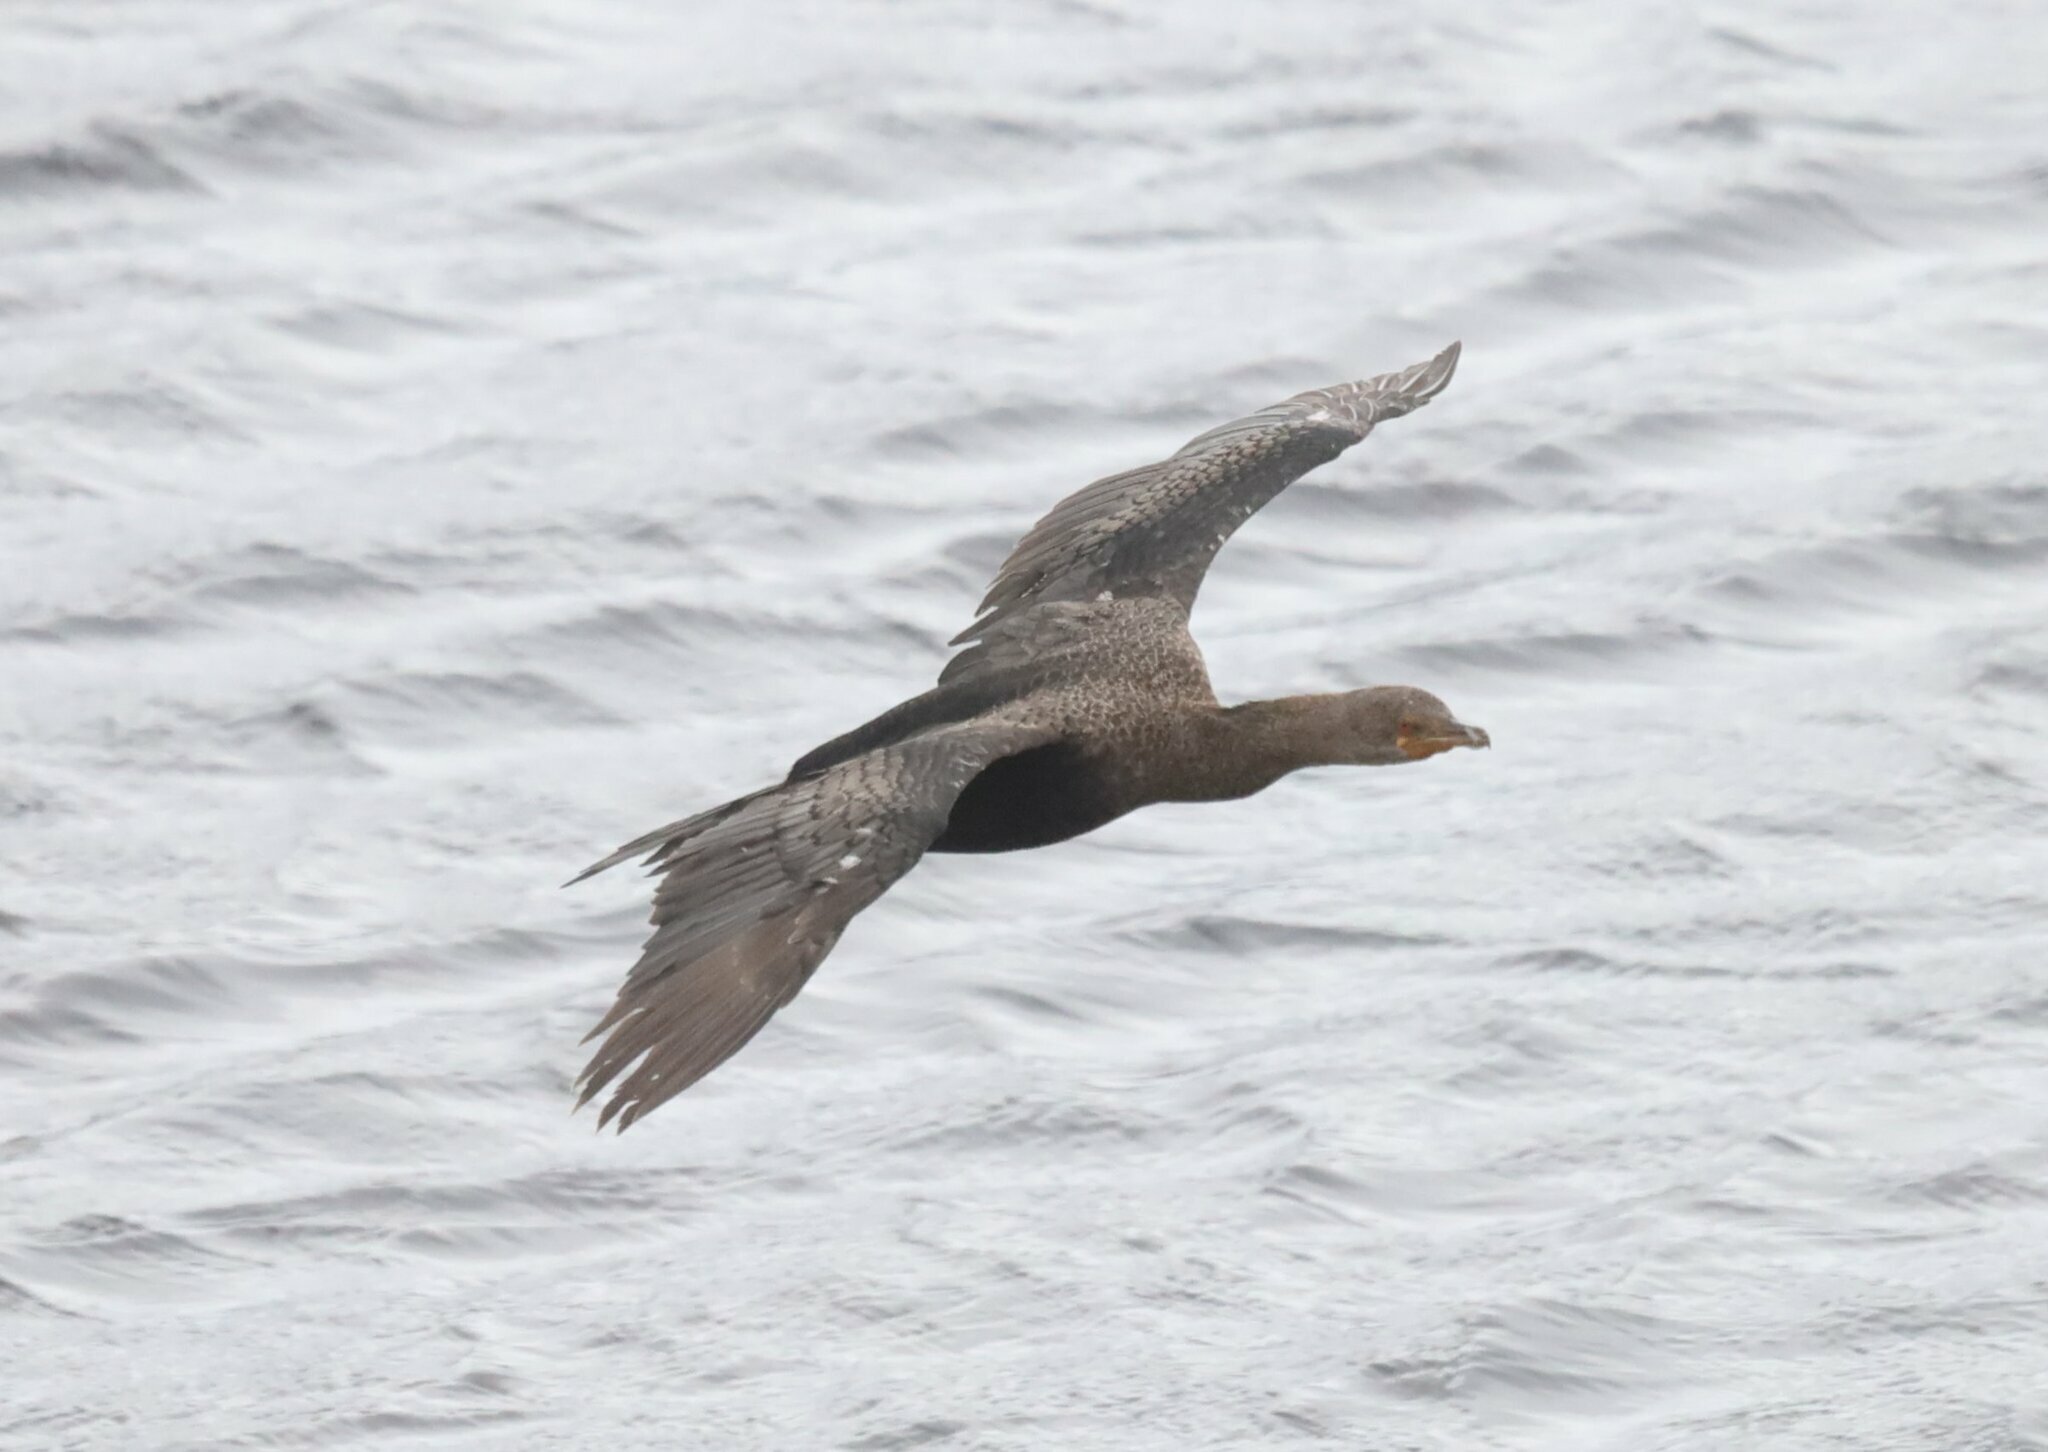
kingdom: Animalia
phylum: Chordata
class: Aves
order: Suliformes
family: Phalacrocoracidae
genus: Microcarbo
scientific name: Microcarbo coronatus
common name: Crowned cormorant
